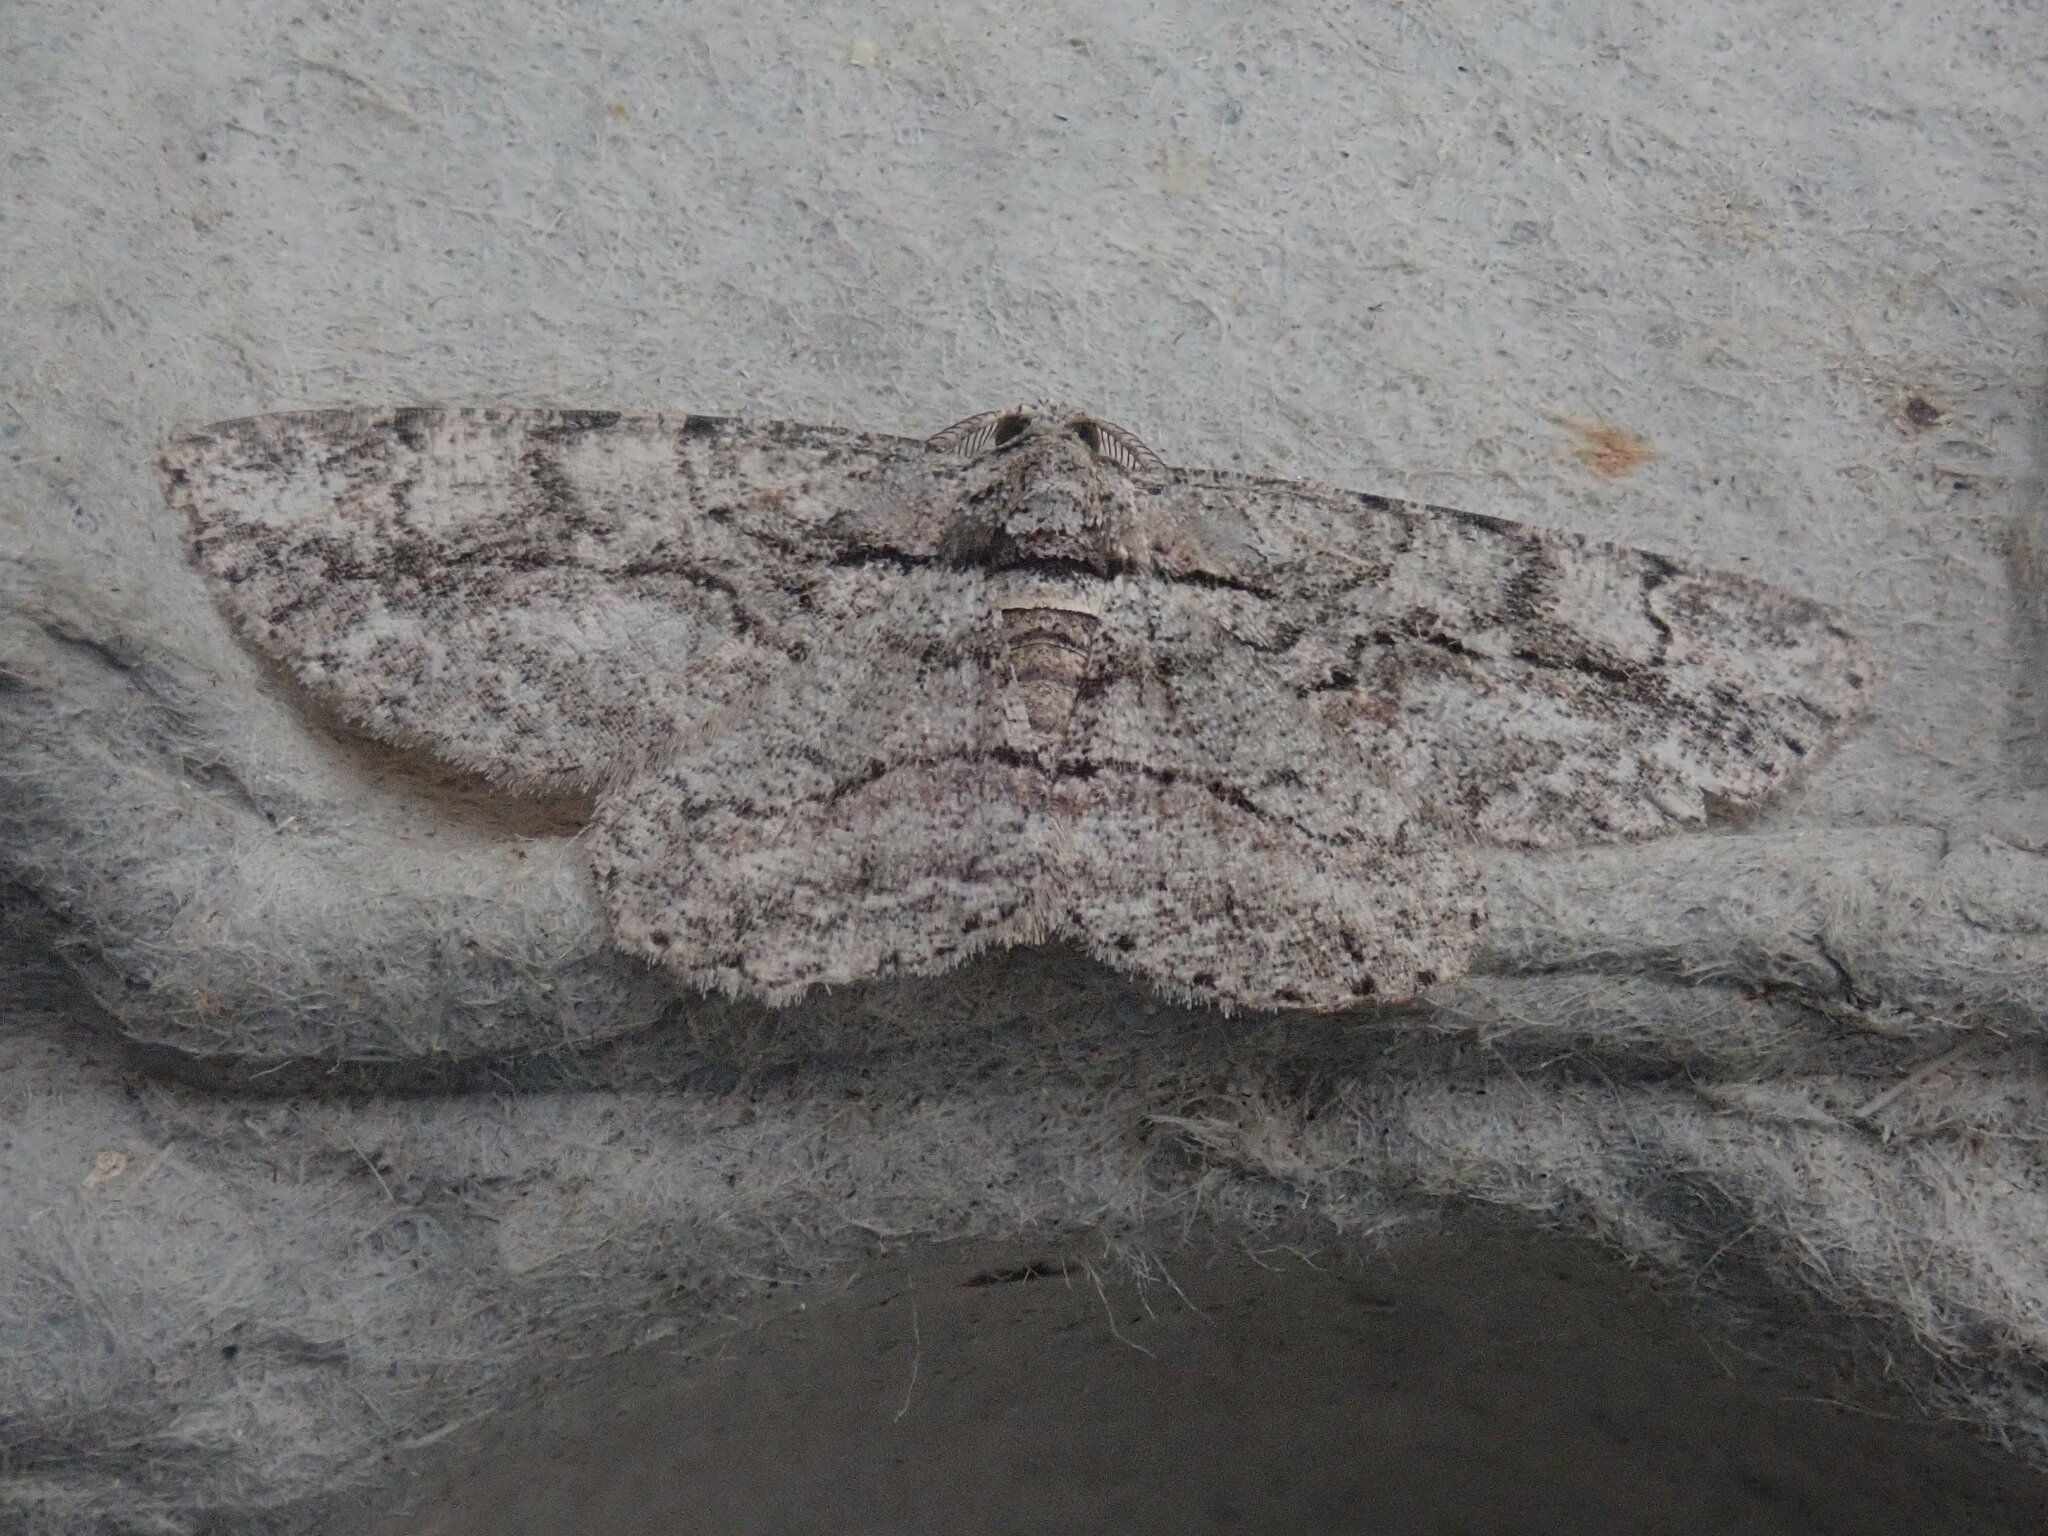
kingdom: Animalia
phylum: Arthropoda
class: Insecta
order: Lepidoptera
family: Geometridae
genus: Anavitrinella
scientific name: Anavitrinella pampinaria
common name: Common gray
